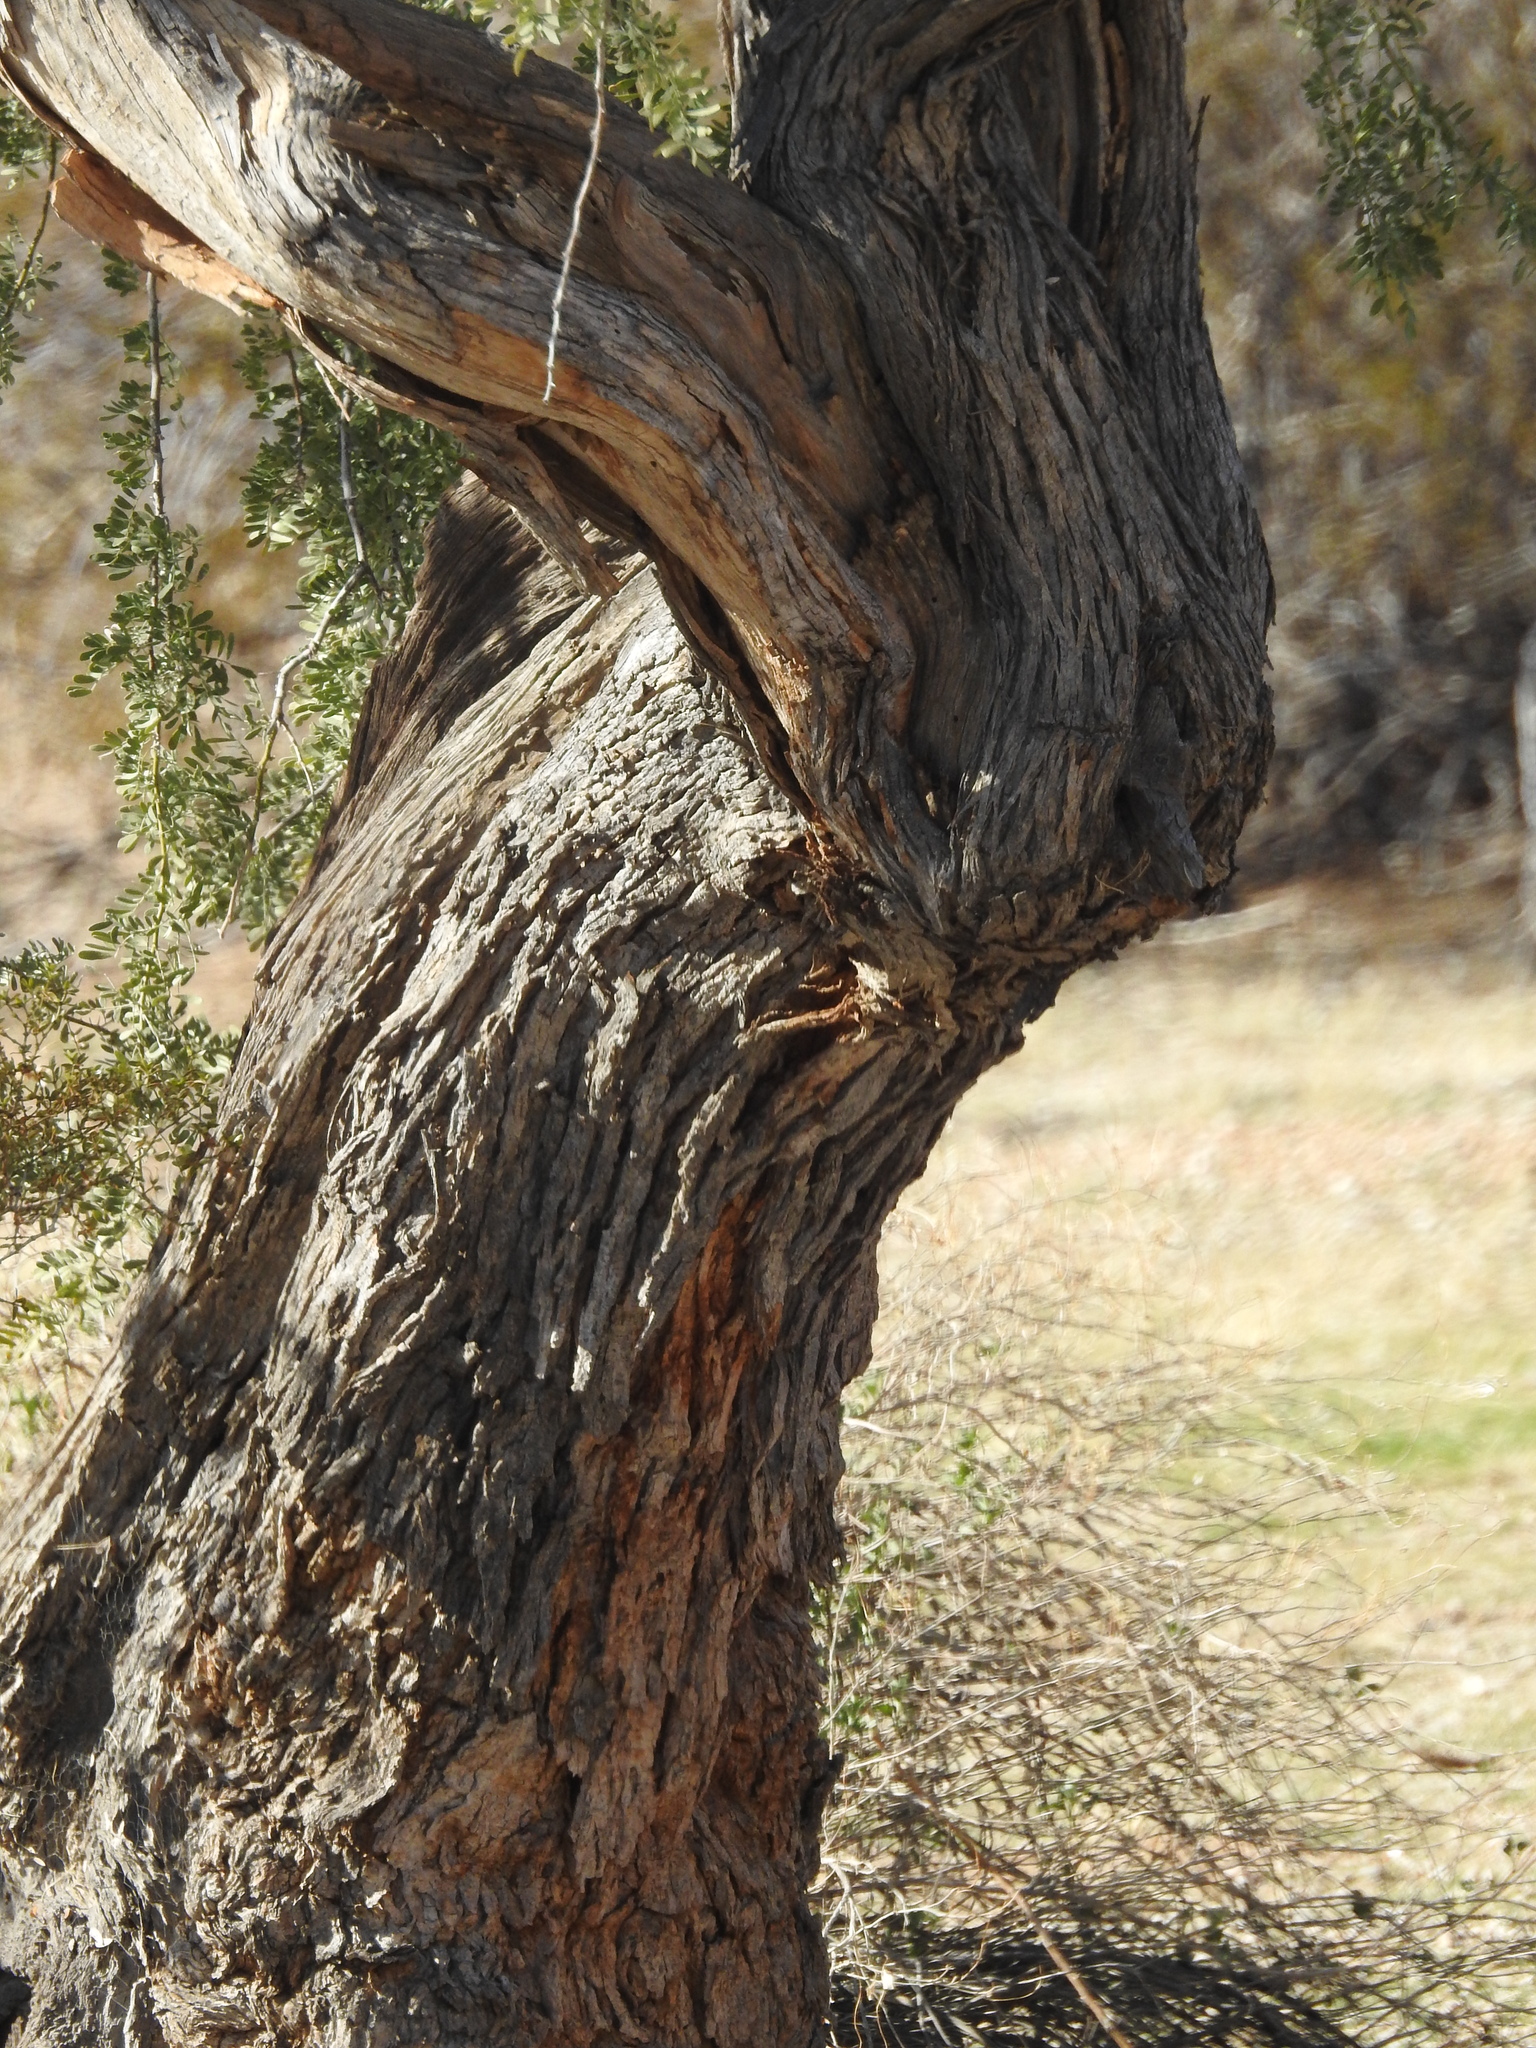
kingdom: Plantae
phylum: Tracheophyta
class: Magnoliopsida
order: Fabales
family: Fabaceae
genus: Olneya
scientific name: Olneya tesota
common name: Desert ironwood
